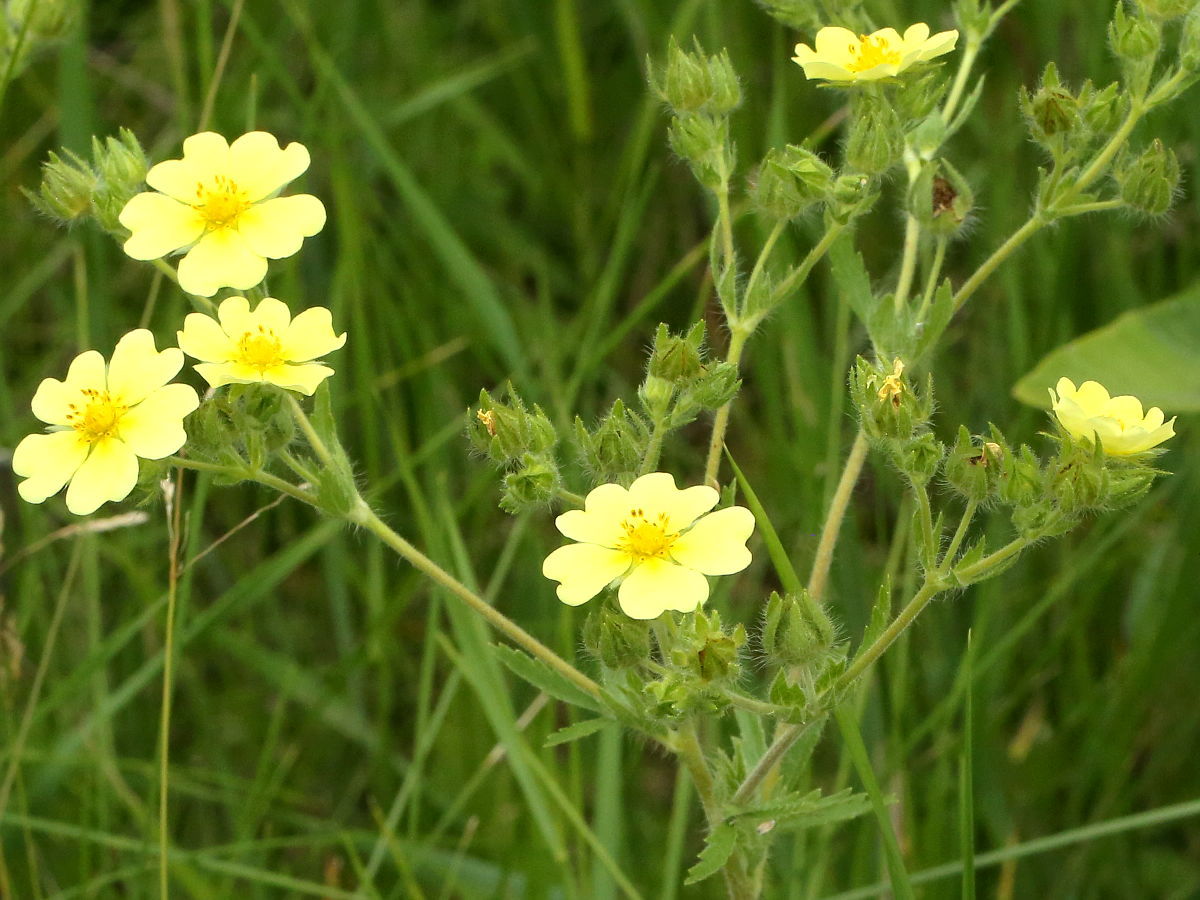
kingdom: Plantae
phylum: Tracheophyta
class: Magnoliopsida
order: Rosales
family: Rosaceae
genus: Potentilla
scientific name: Potentilla recta
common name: Sulphur cinquefoil
